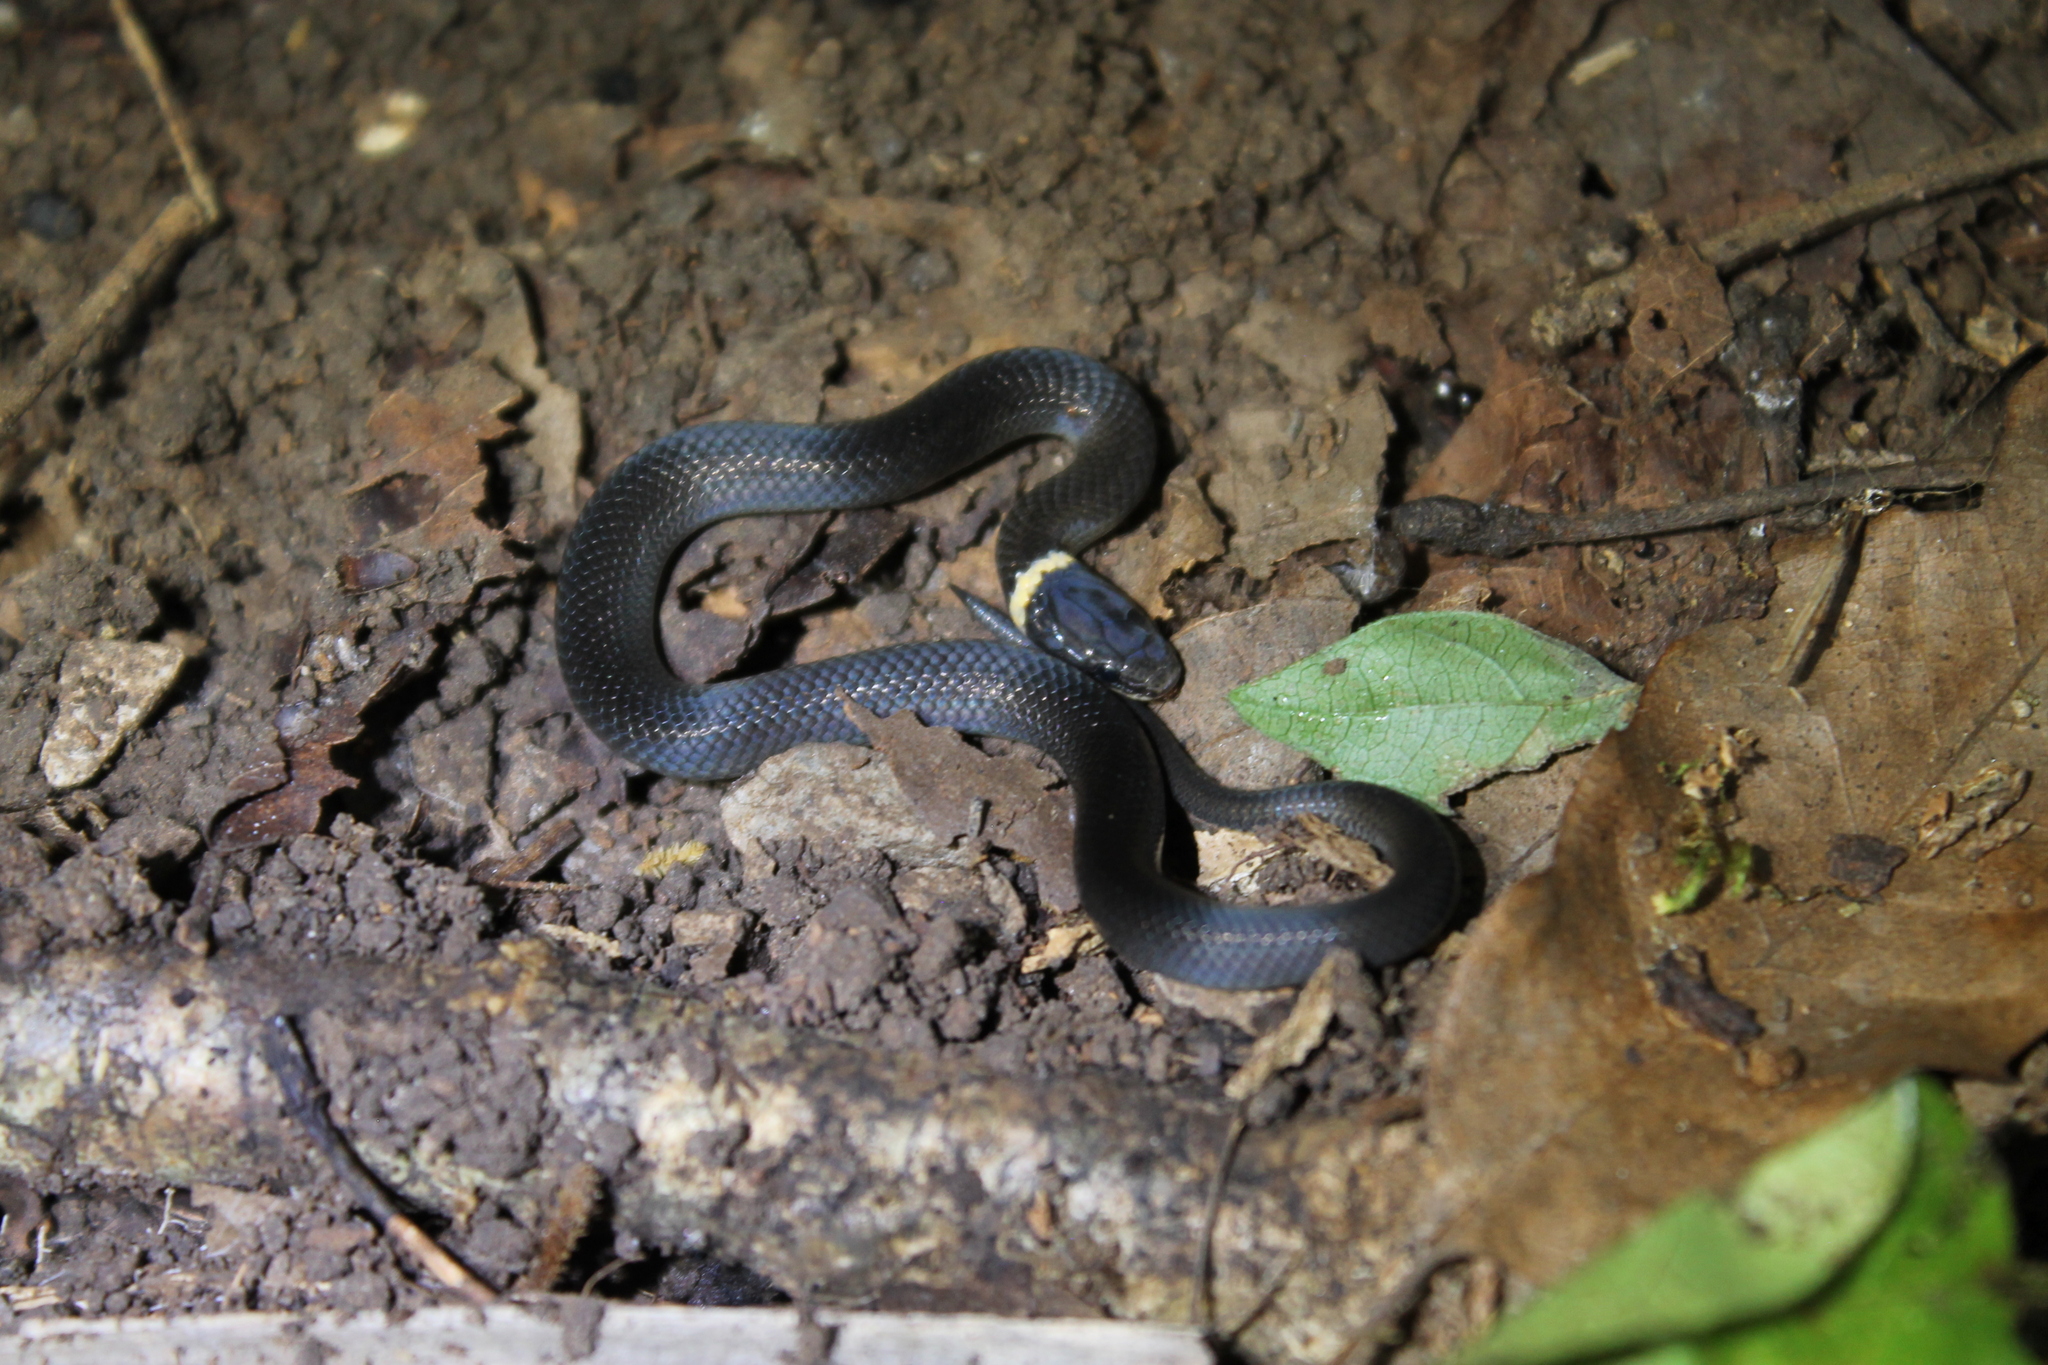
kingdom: Animalia
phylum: Chordata
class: Squamata
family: Colubridae
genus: Diadophis
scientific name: Diadophis punctatus
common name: Ringneck snake
